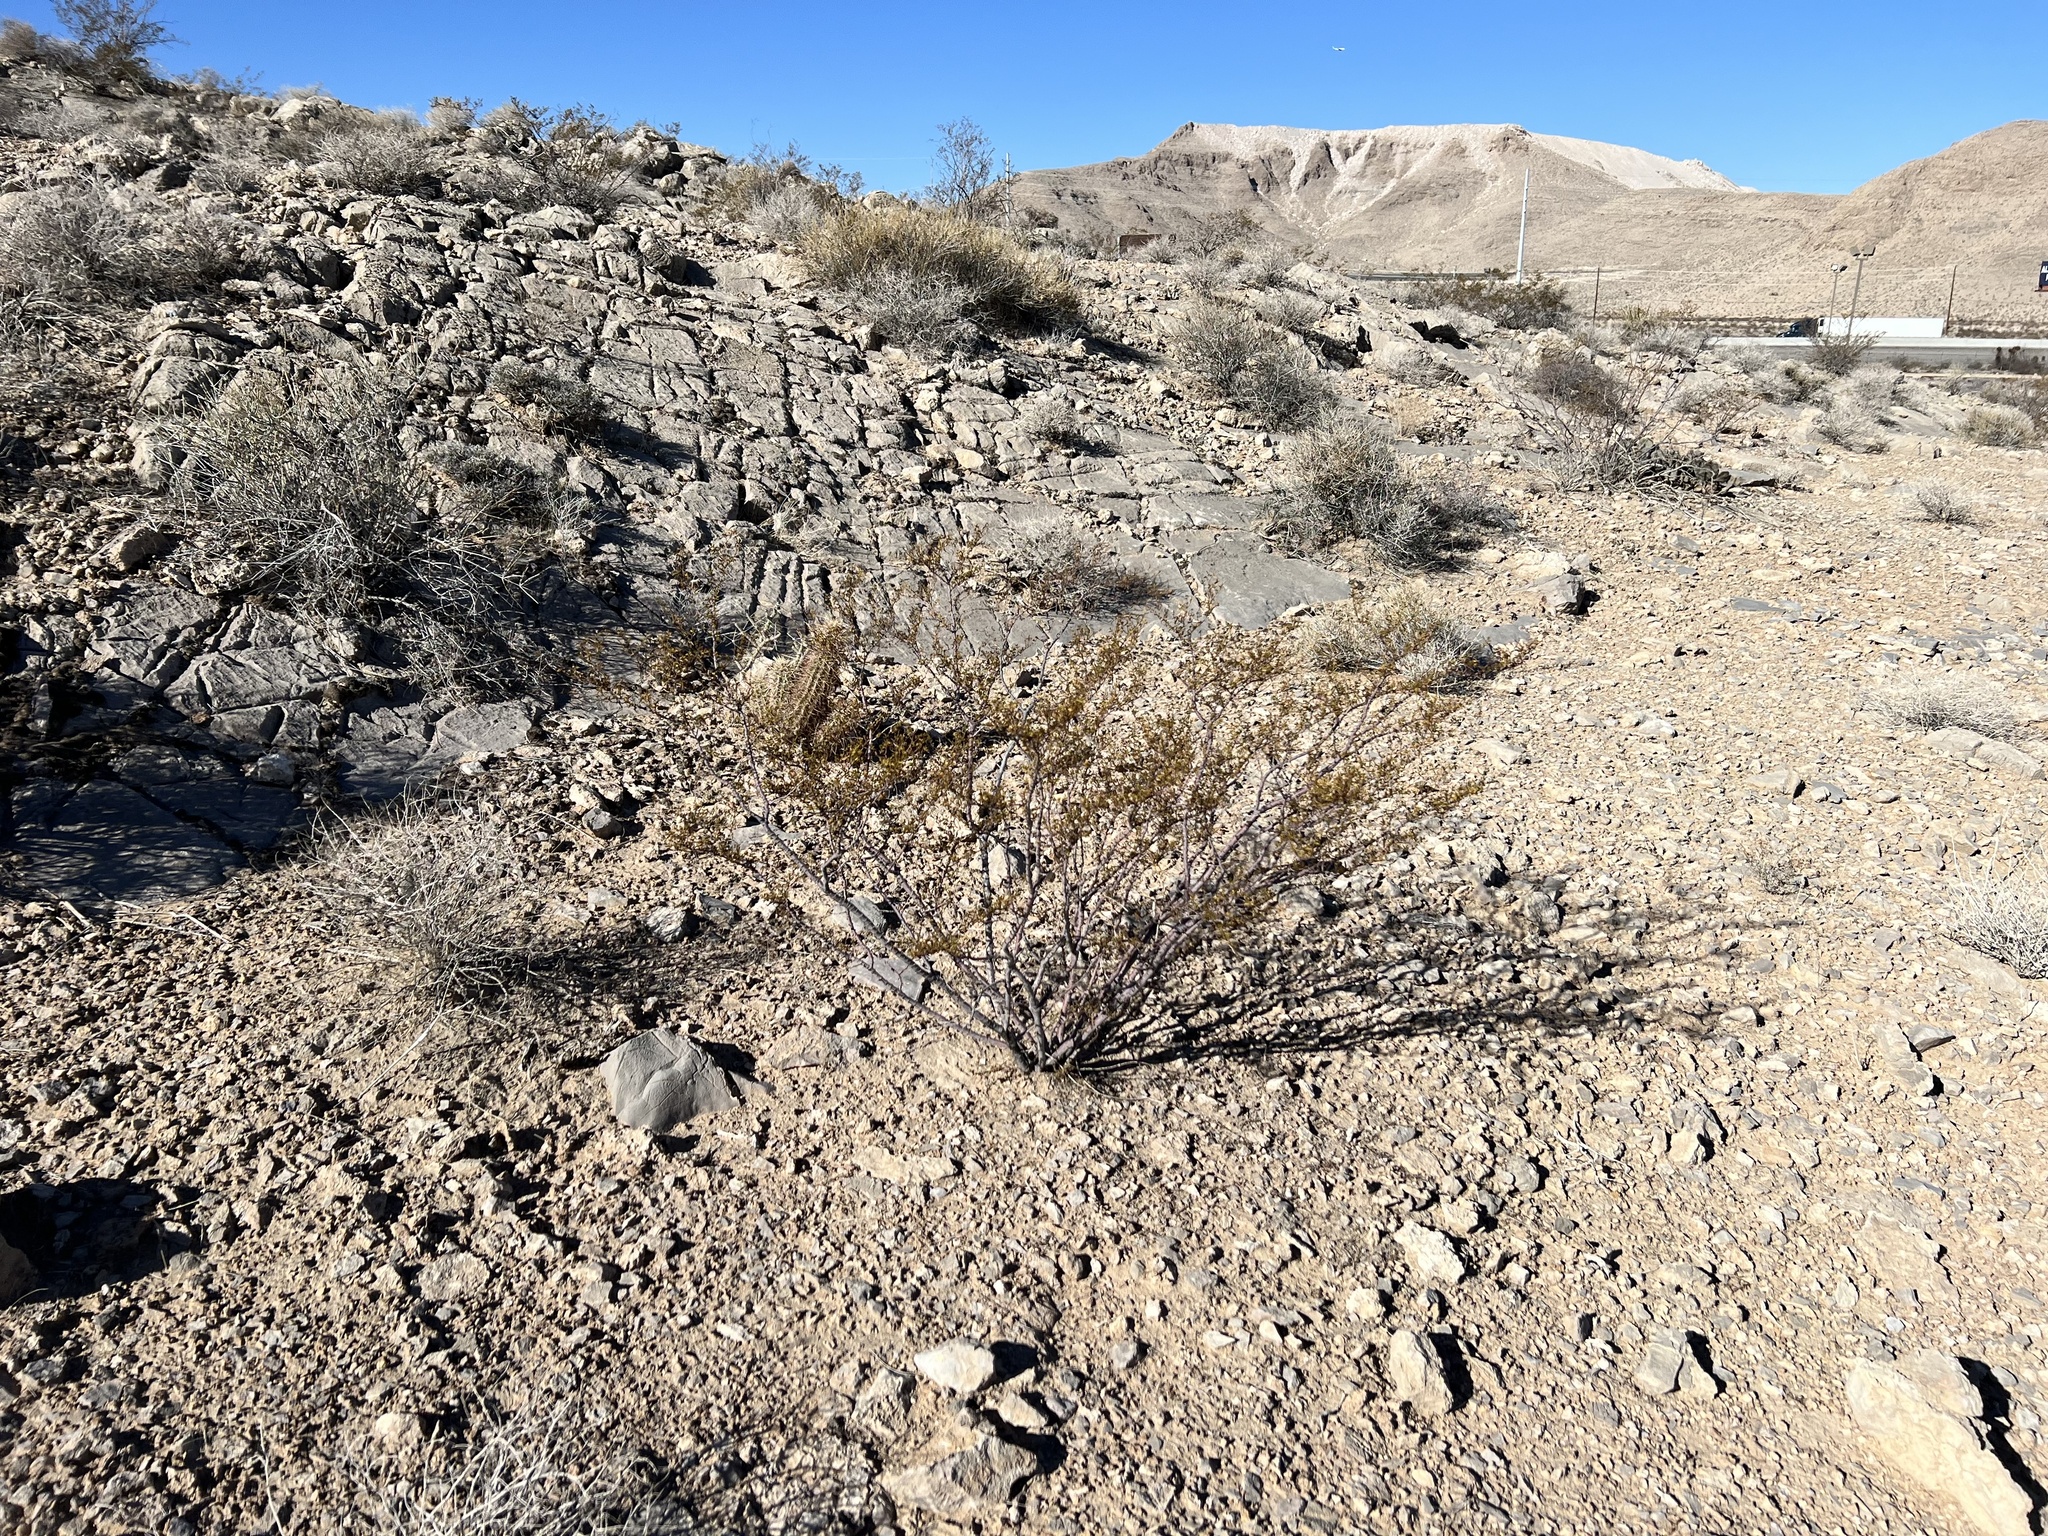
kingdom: Plantae
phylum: Tracheophyta
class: Magnoliopsida
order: Zygophyllales
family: Zygophyllaceae
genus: Larrea
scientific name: Larrea tridentata
